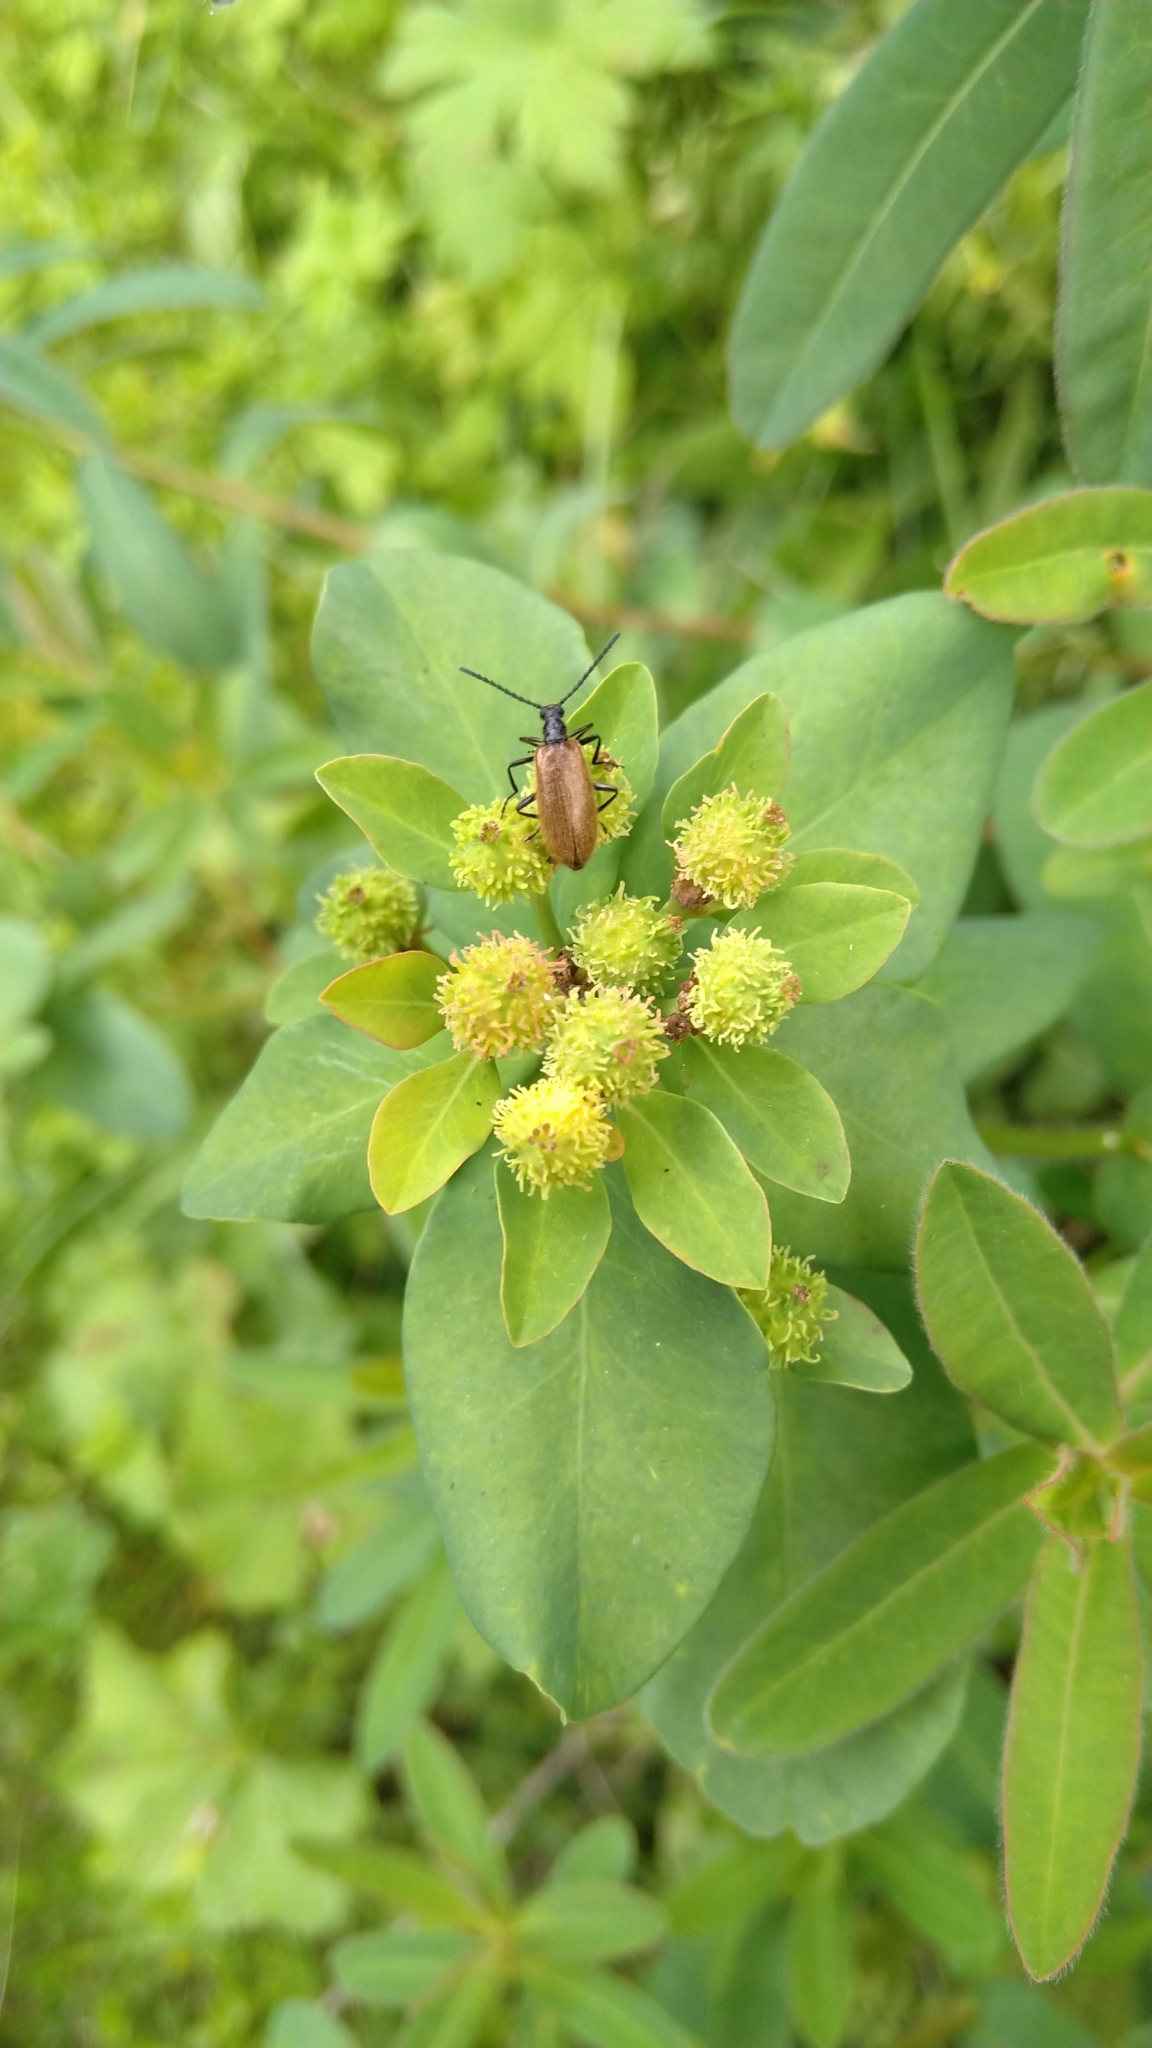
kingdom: Animalia
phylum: Arthropoda
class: Insecta
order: Coleoptera
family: Tenebrionidae
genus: Lagria
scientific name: Lagria hirta
